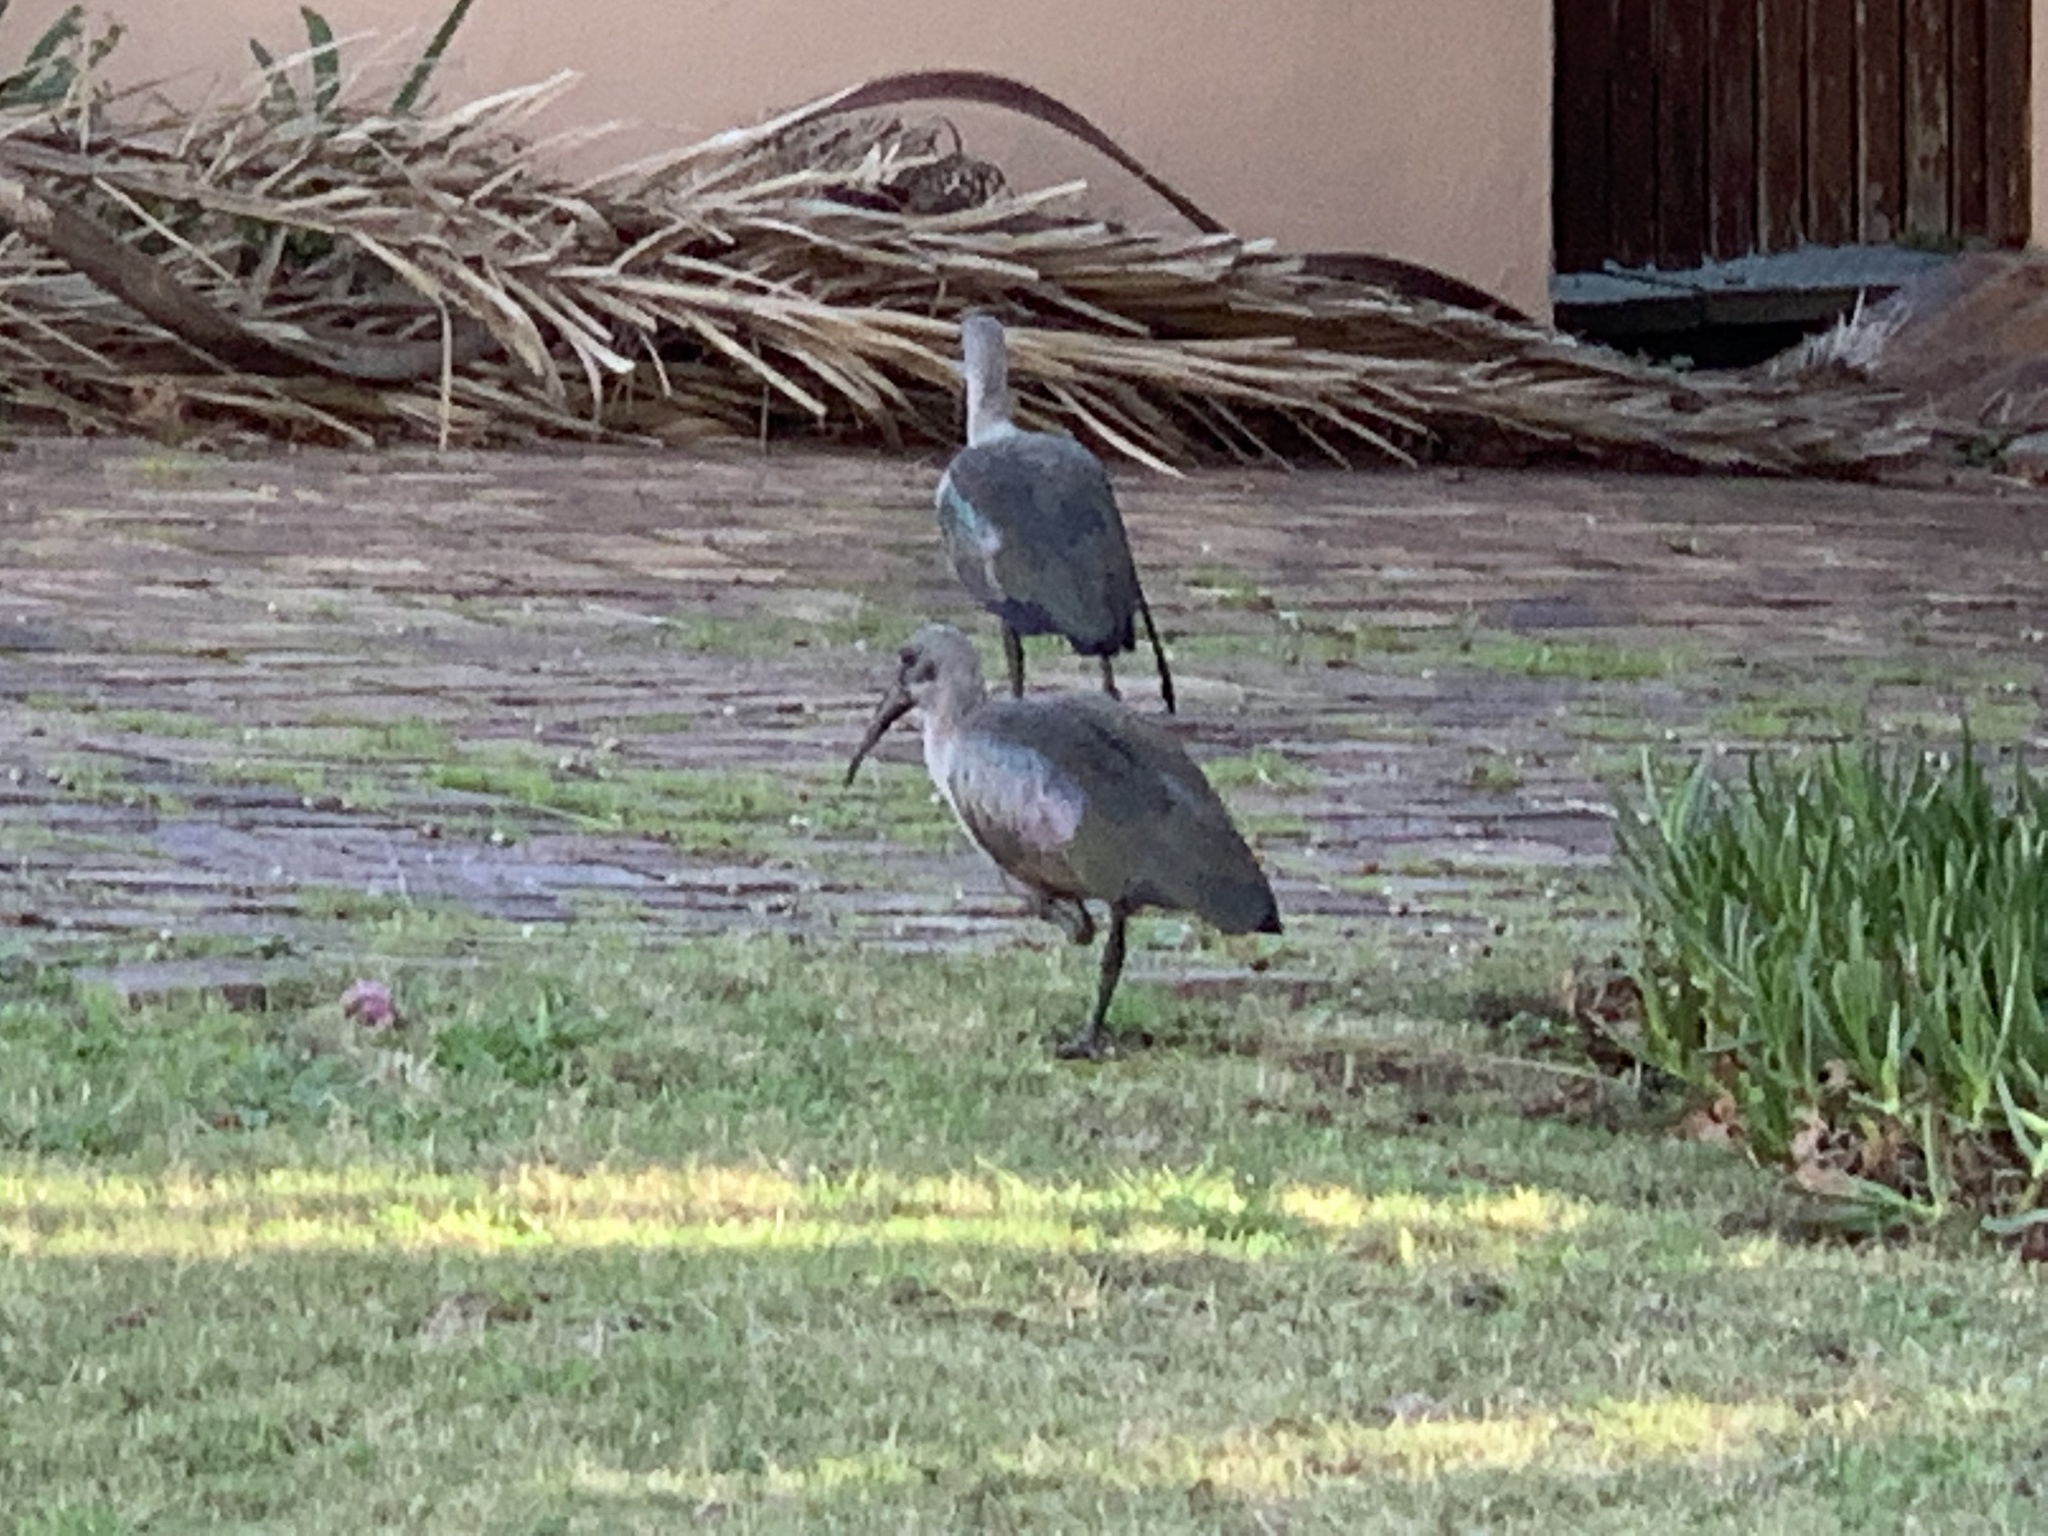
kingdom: Animalia
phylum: Chordata
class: Aves
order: Pelecaniformes
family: Threskiornithidae
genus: Bostrychia
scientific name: Bostrychia hagedash
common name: Hadada ibis
